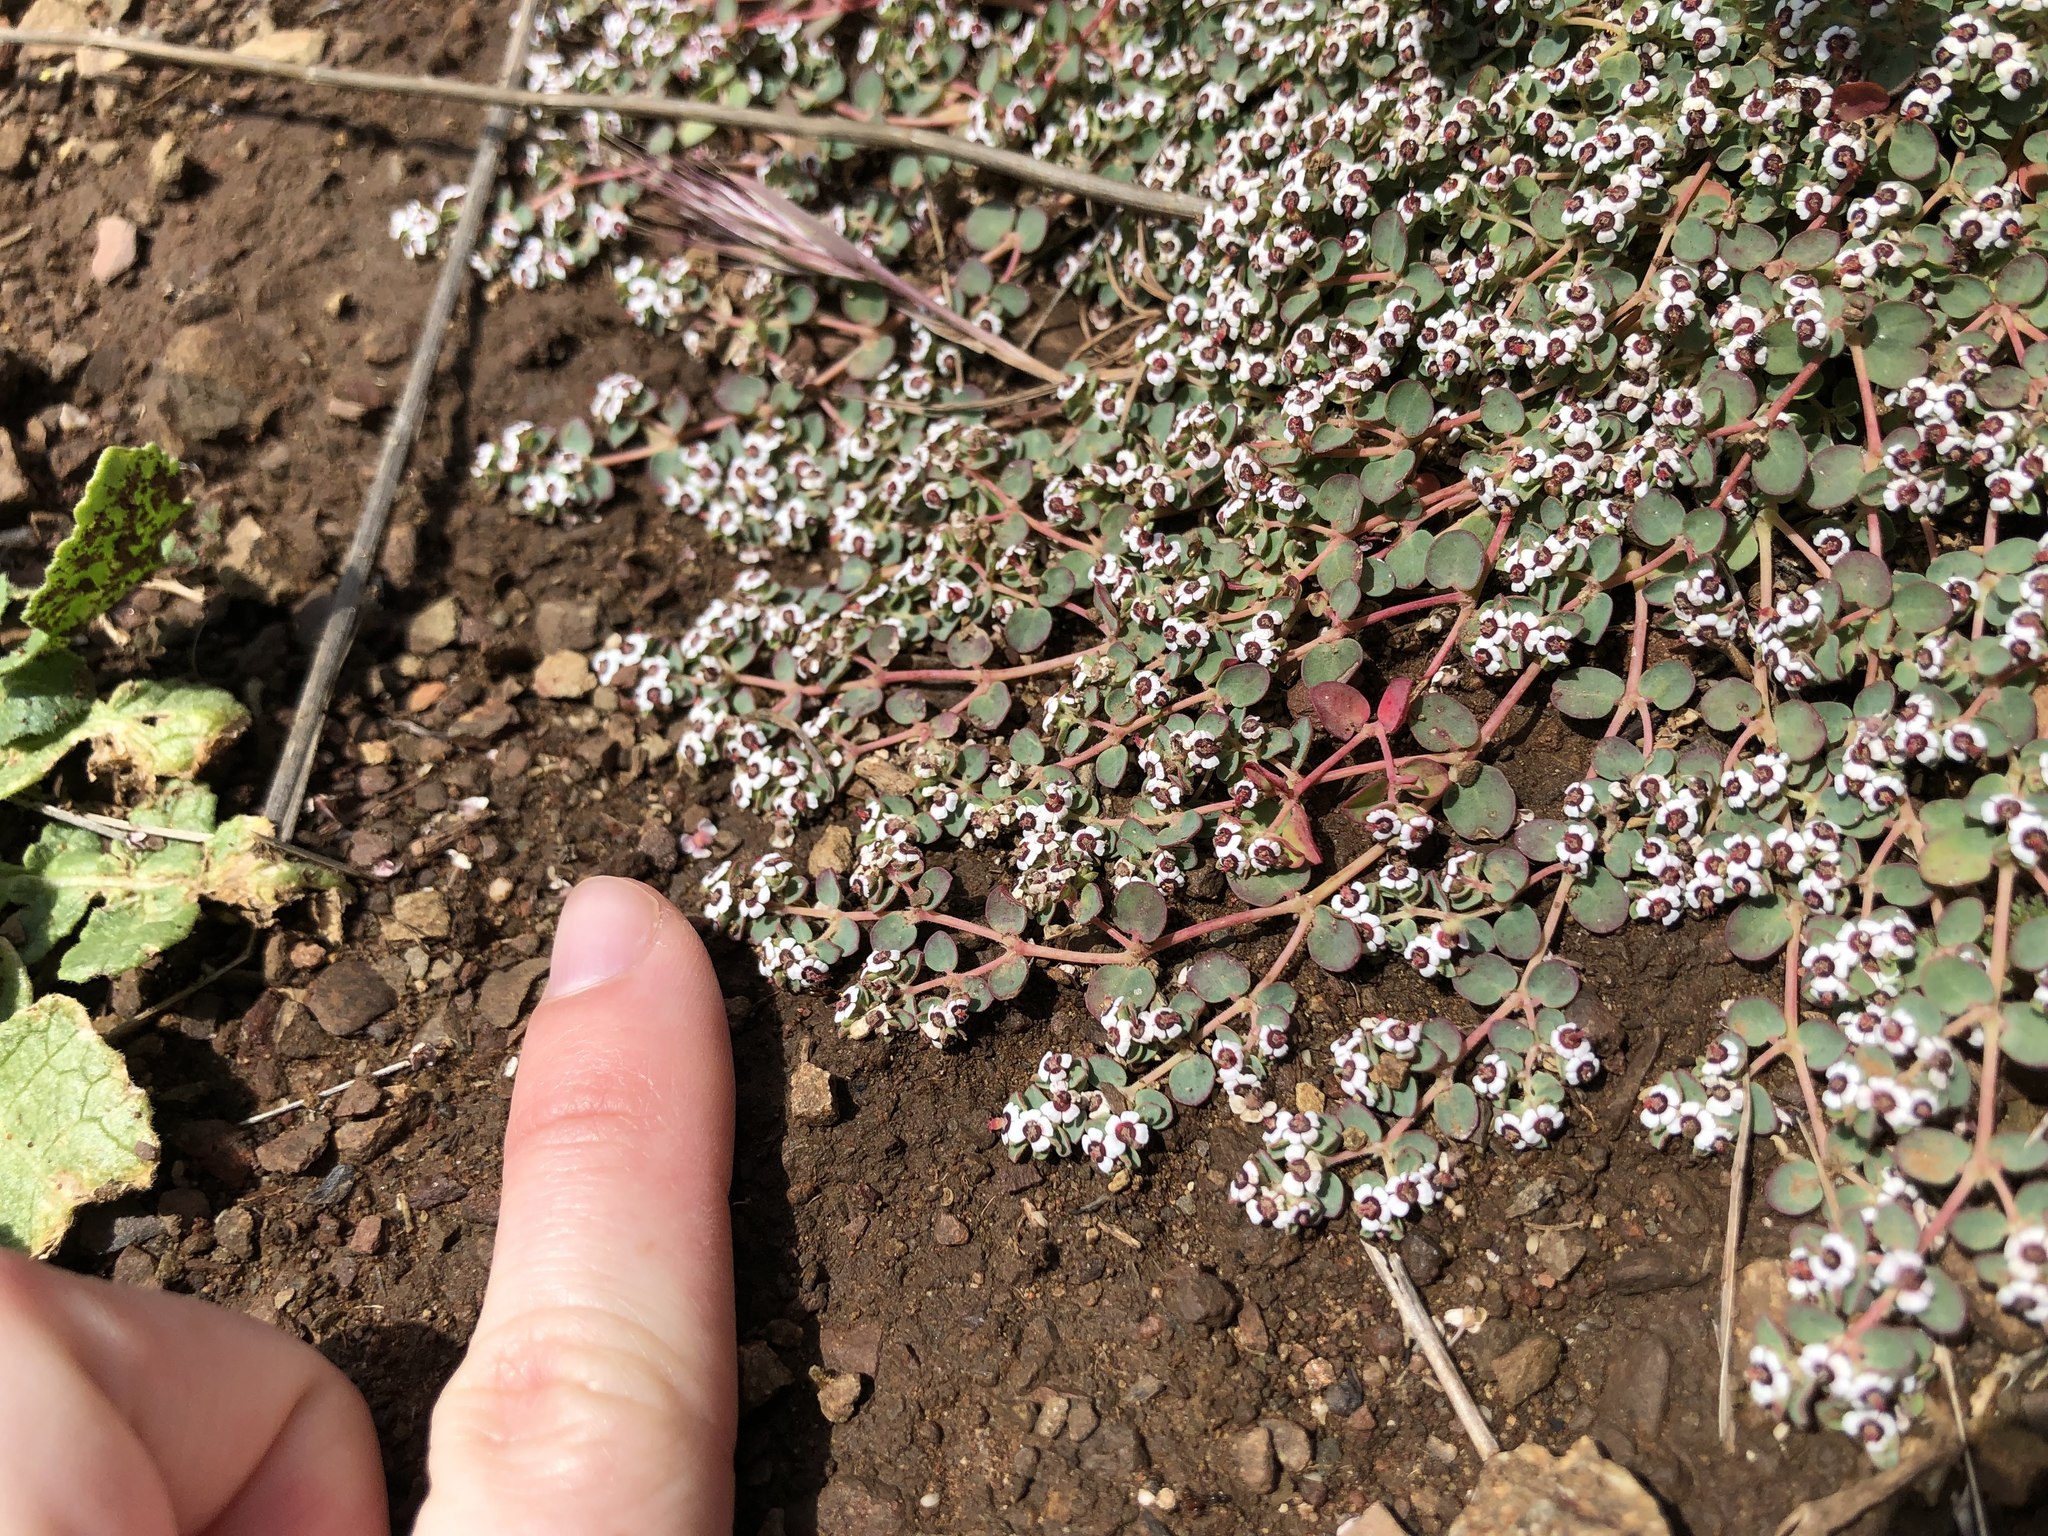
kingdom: Plantae
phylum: Tracheophyta
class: Magnoliopsida
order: Malpighiales
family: Euphorbiaceae
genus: Euphorbia
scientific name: Euphorbia polycarpa
